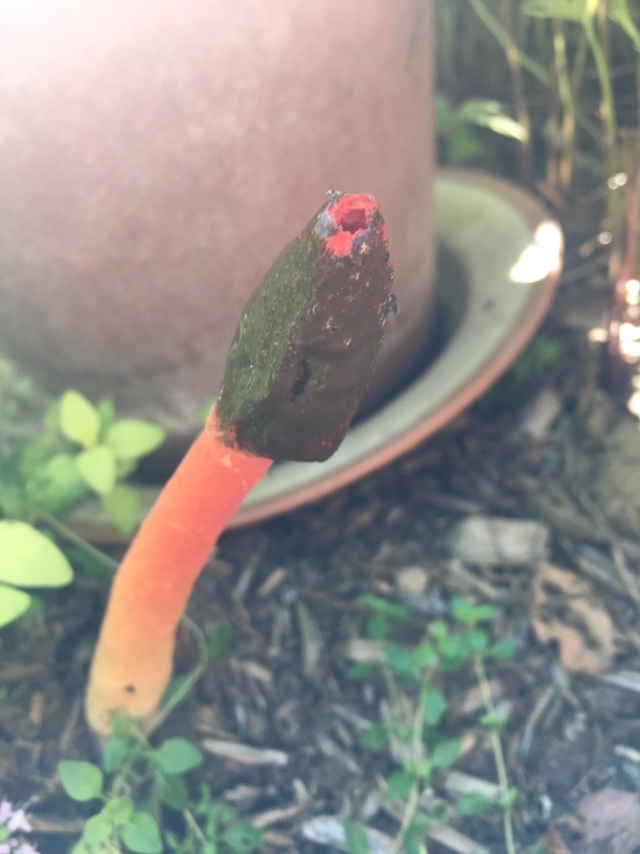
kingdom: Fungi
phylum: Basidiomycota
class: Agaricomycetes
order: Phallales
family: Phallaceae
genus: Phallus
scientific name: Phallus rugulosus
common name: Wrinkly stinkhorn
